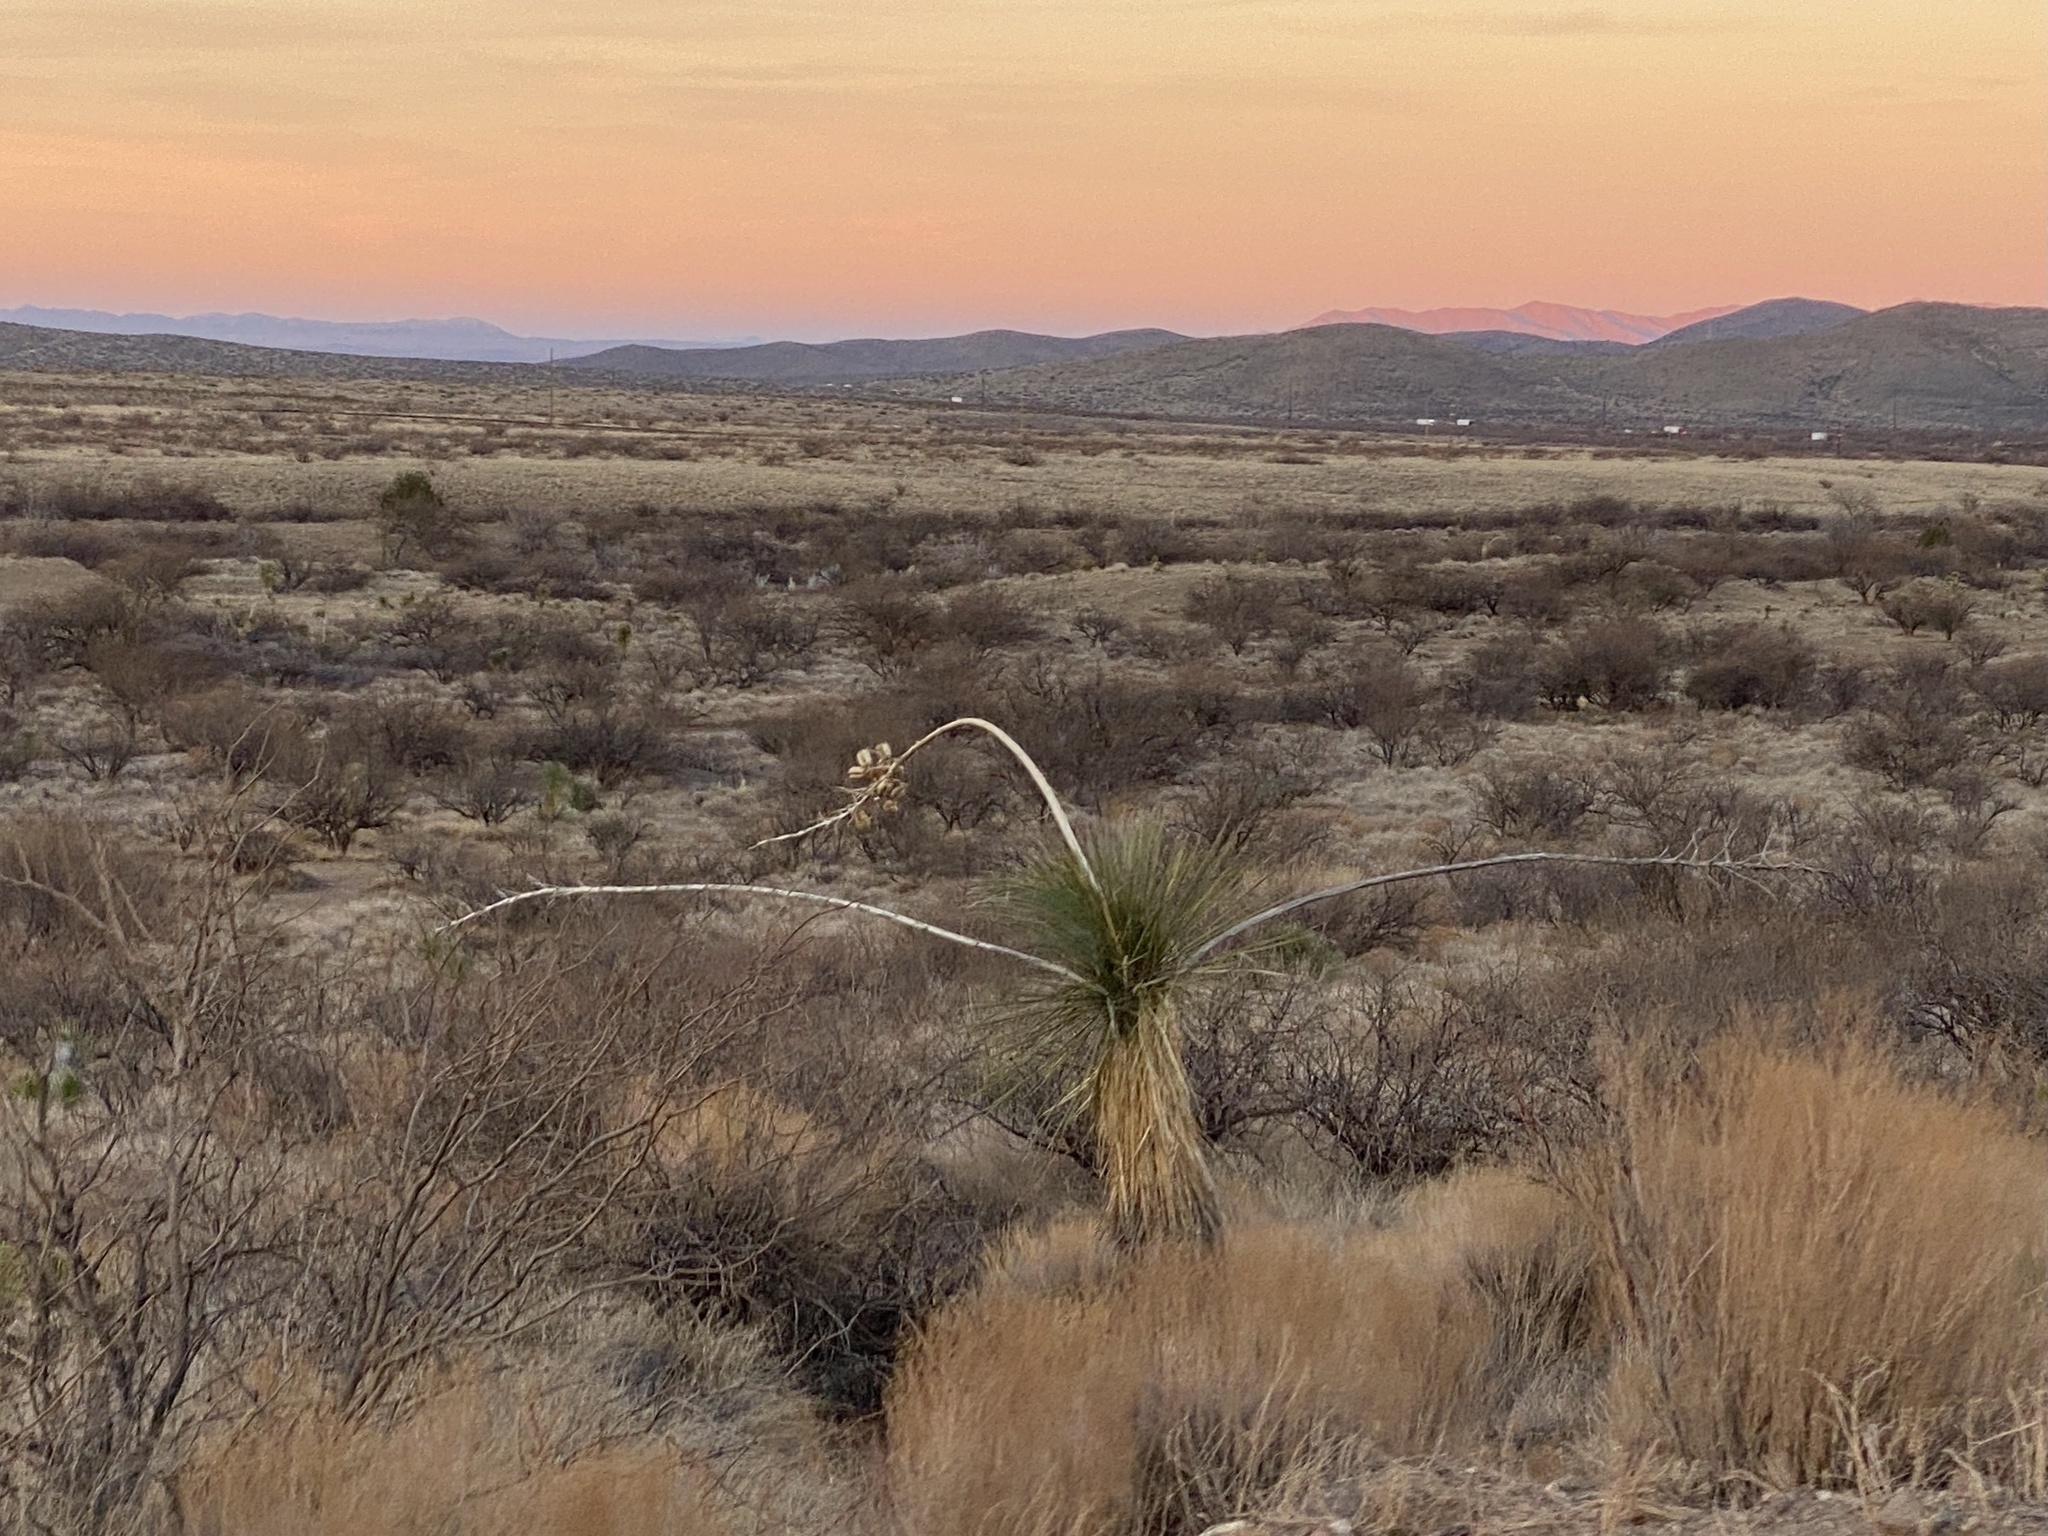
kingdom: Plantae
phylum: Tracheophyta
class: Liliopsida
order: Asparagales
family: Asparagaceae
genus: Yucca
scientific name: Yucca elata
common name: Palmella
